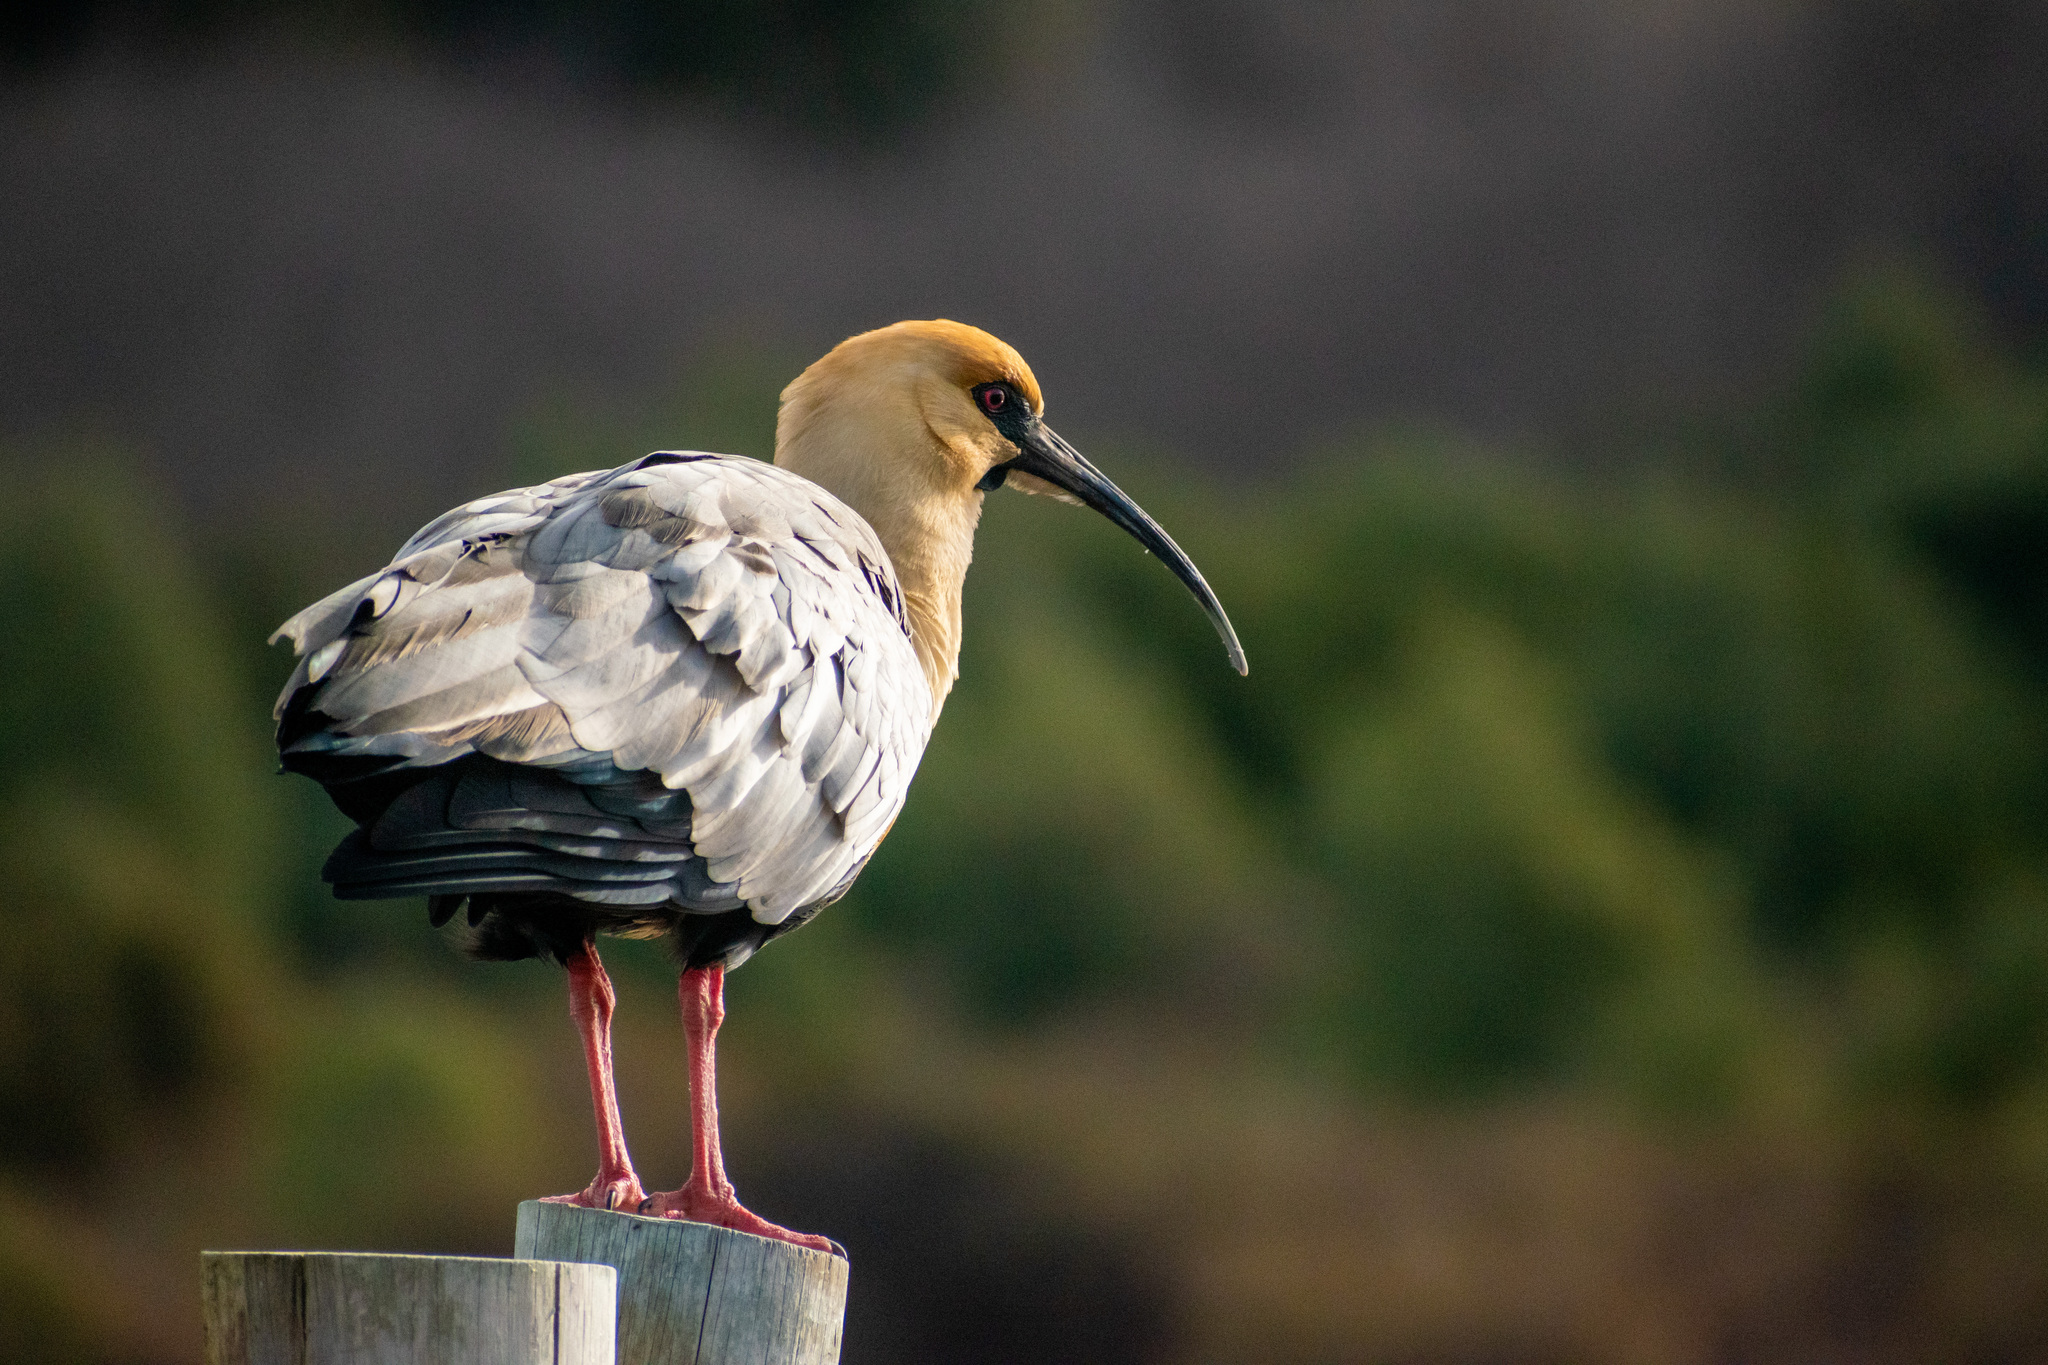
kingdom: Animalia
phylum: Chordata
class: Aves
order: Pelecaniformes
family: Threskiornithidae
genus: Theristicus
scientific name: Theristicus melanopis
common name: Black-faced ibis
